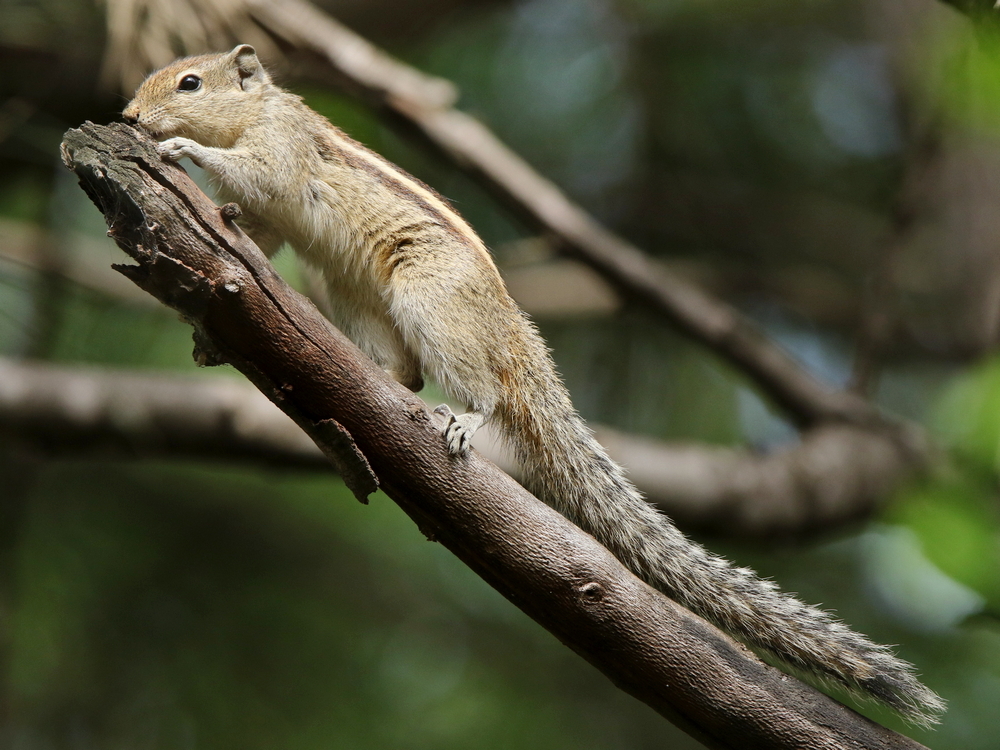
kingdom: Animalia
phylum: Chordata
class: Mammalia
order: Rodentia
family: Sciuridae
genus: Funambulus
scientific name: Funambulus palmarum
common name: Indian palm squirrel
